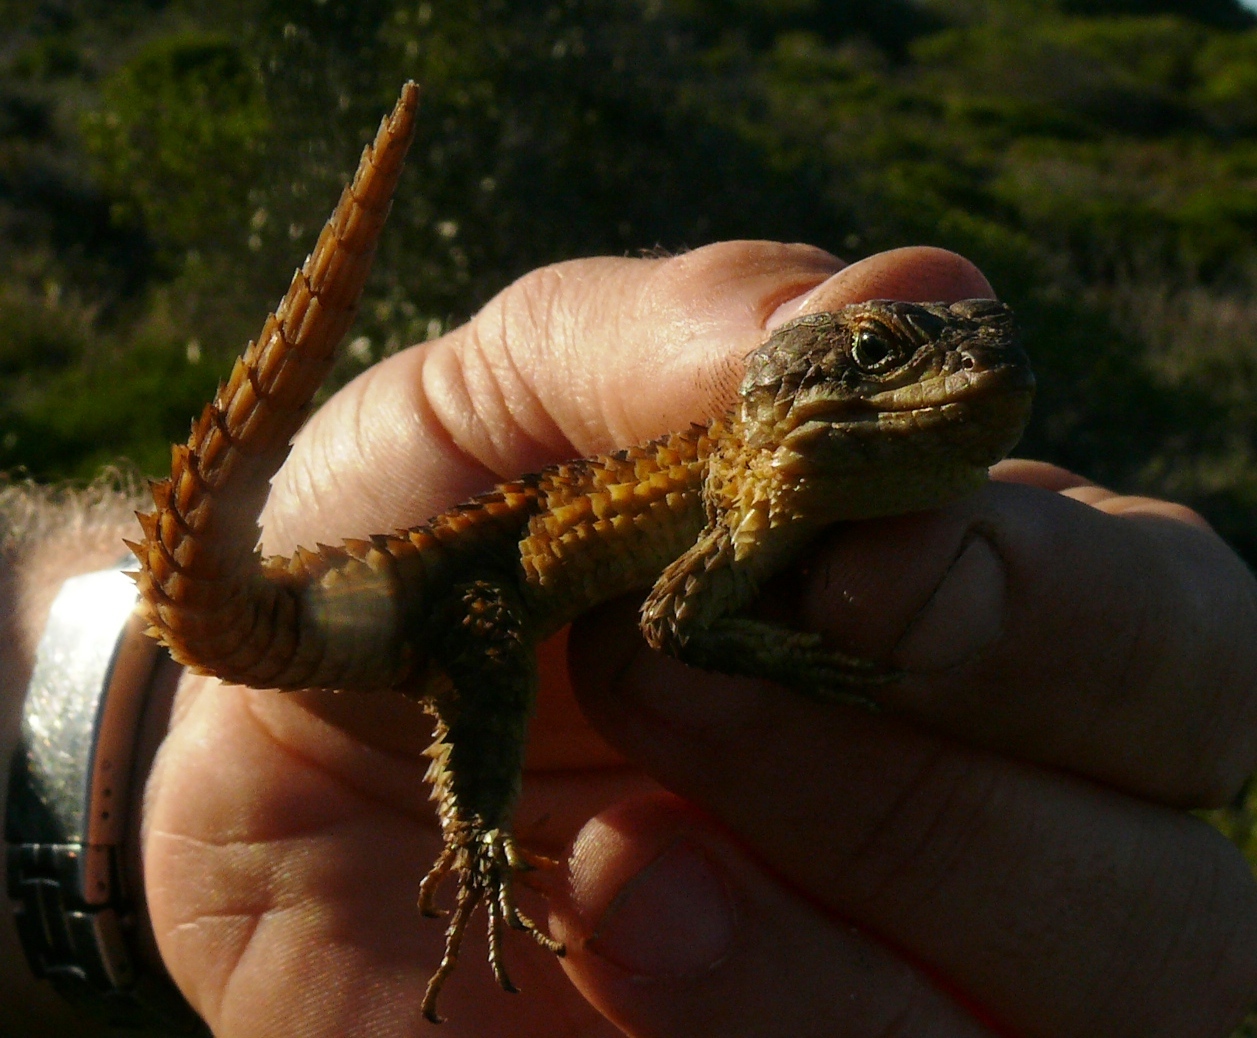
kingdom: Animalia
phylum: Chordata
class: Squamata
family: Cordylidae
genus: Cordylus
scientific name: Cordylus cordylus
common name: Cape girdled lizard
